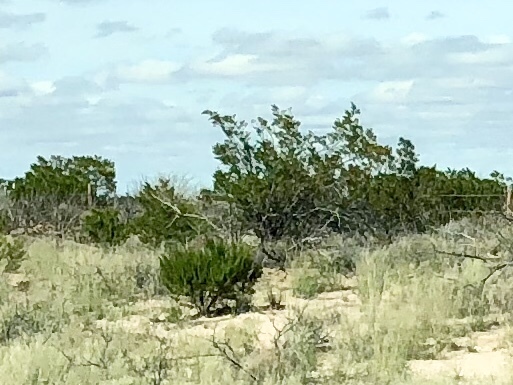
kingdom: Plantae
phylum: Tracheophyta
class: Magnoliopsida
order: Zygophyllales
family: Zygophyllaceae
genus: Larrea
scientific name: Larrea tridentata
